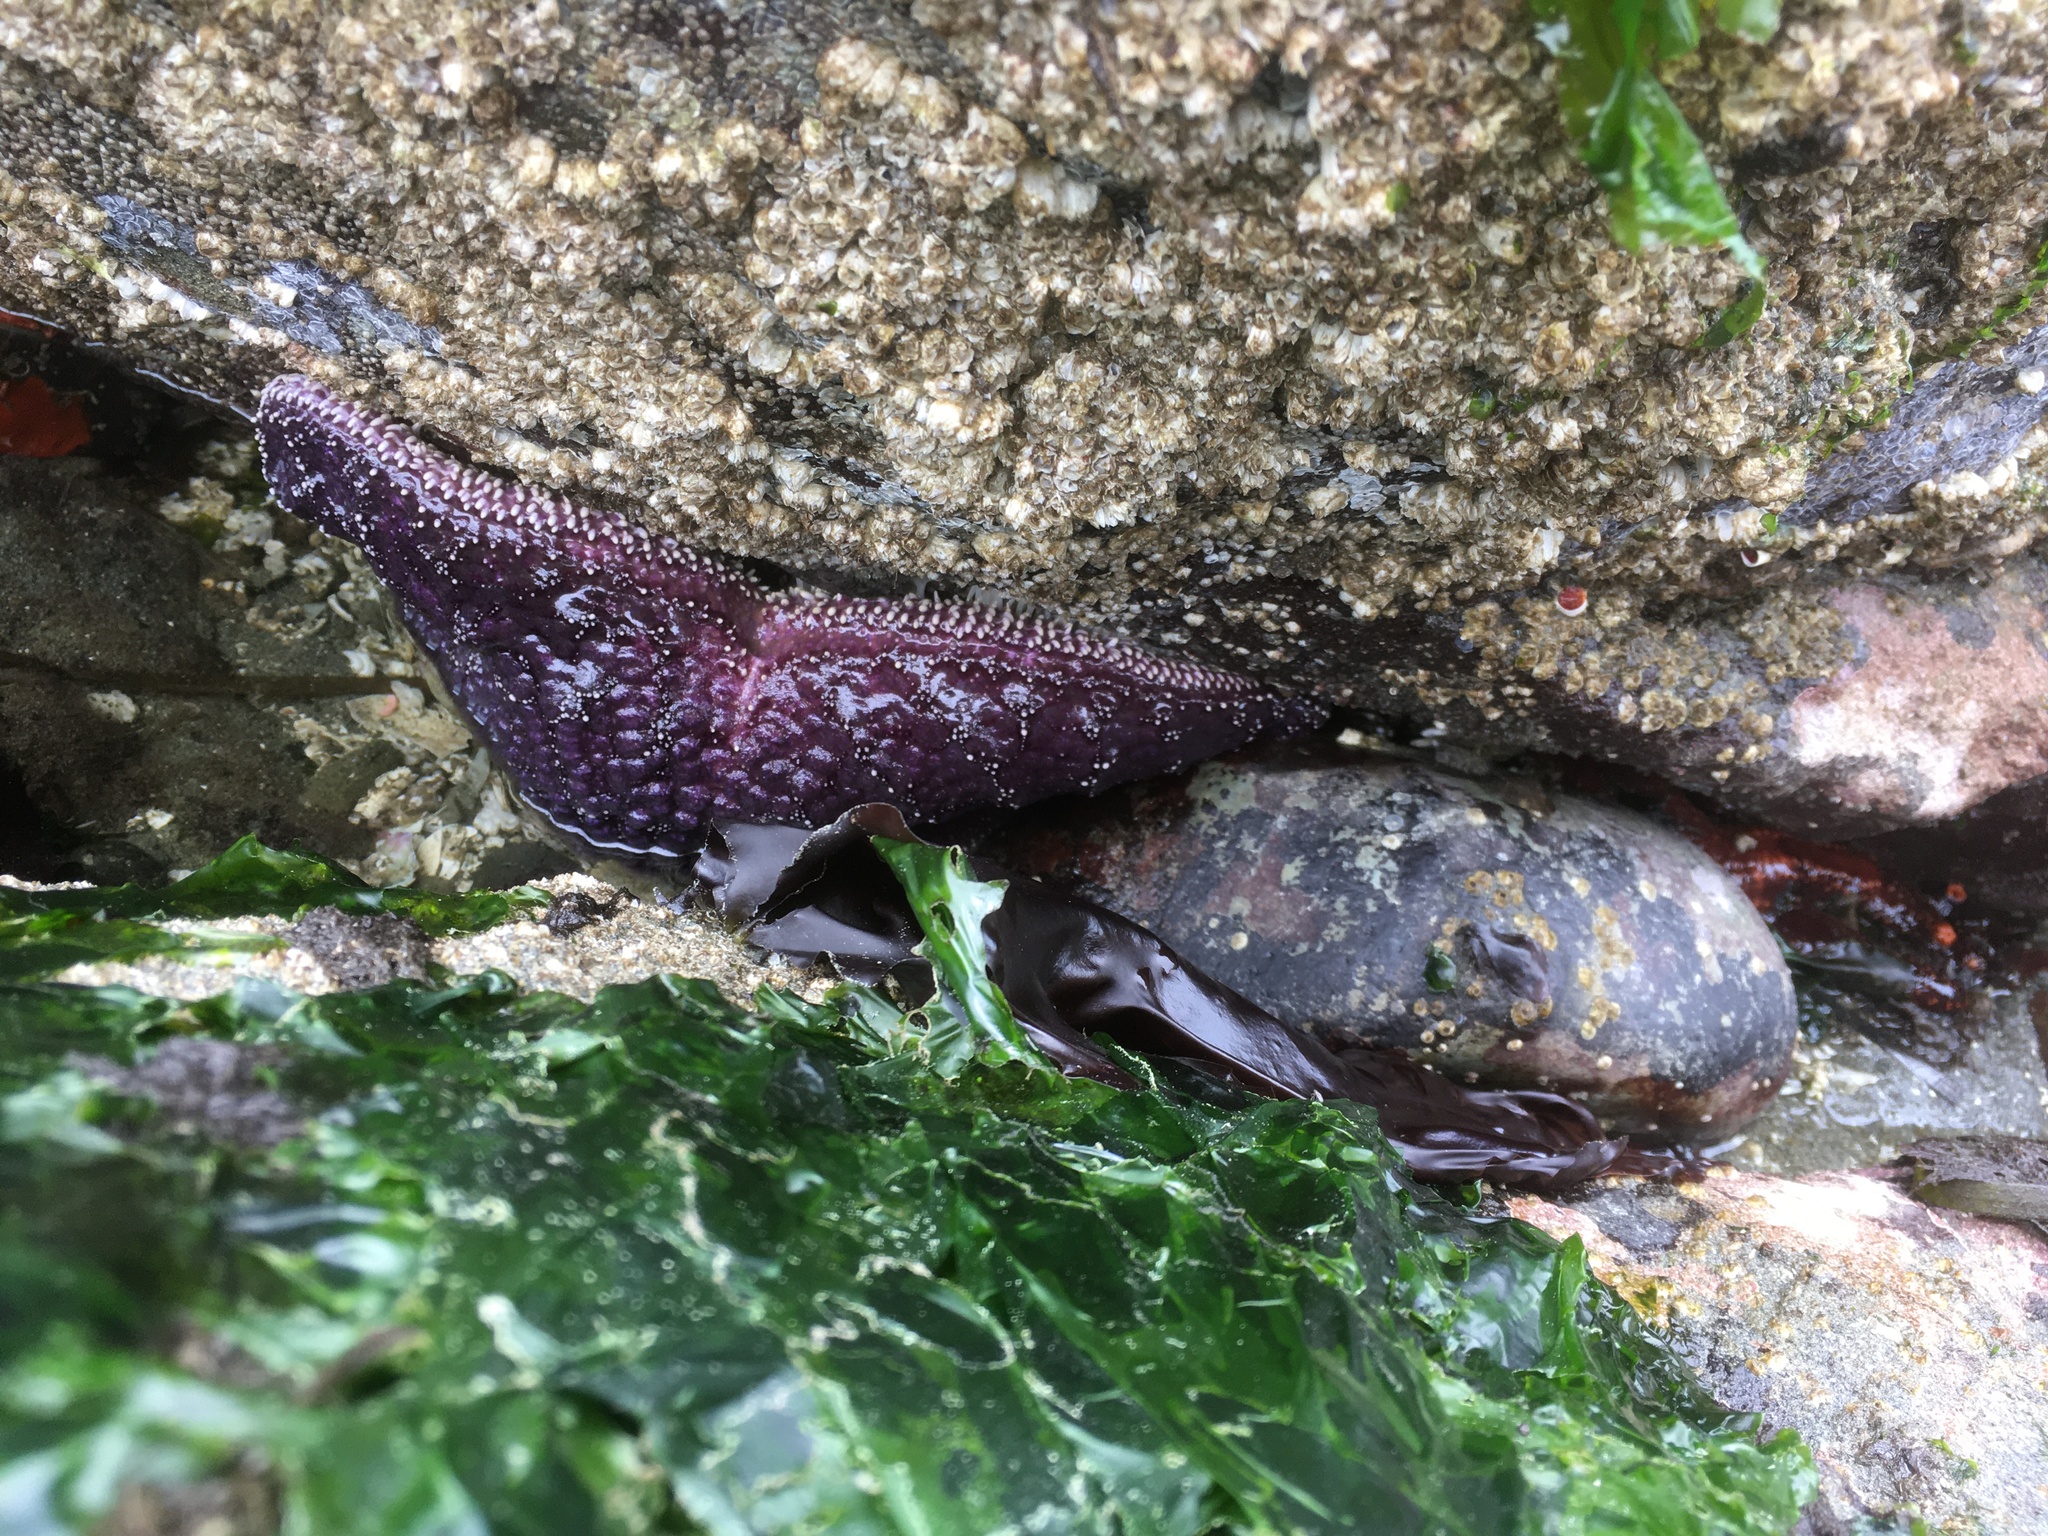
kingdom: Animalia
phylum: Echinodermata
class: Asteroidea
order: Forcipulatida
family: Asteriidae
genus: Pisaster
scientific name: Pisaster ochraceus
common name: Ochre stars
